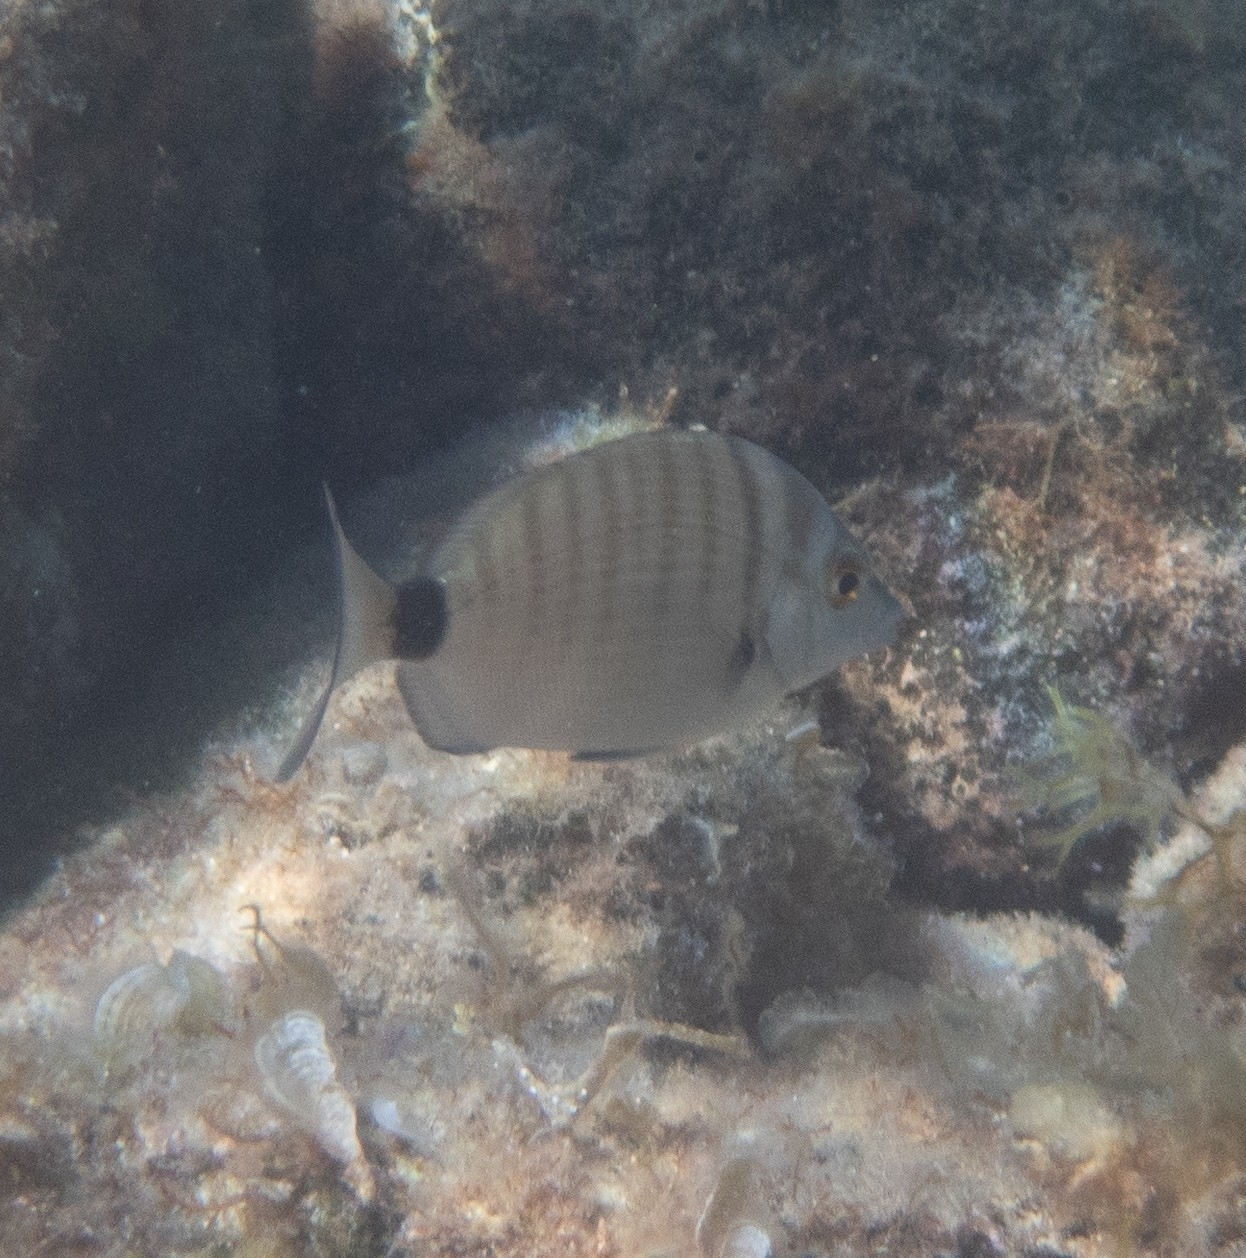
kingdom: Animalia
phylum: Chordata
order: Perciformes
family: Sparidae
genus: Diplodus
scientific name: Diplodus puntazzo
